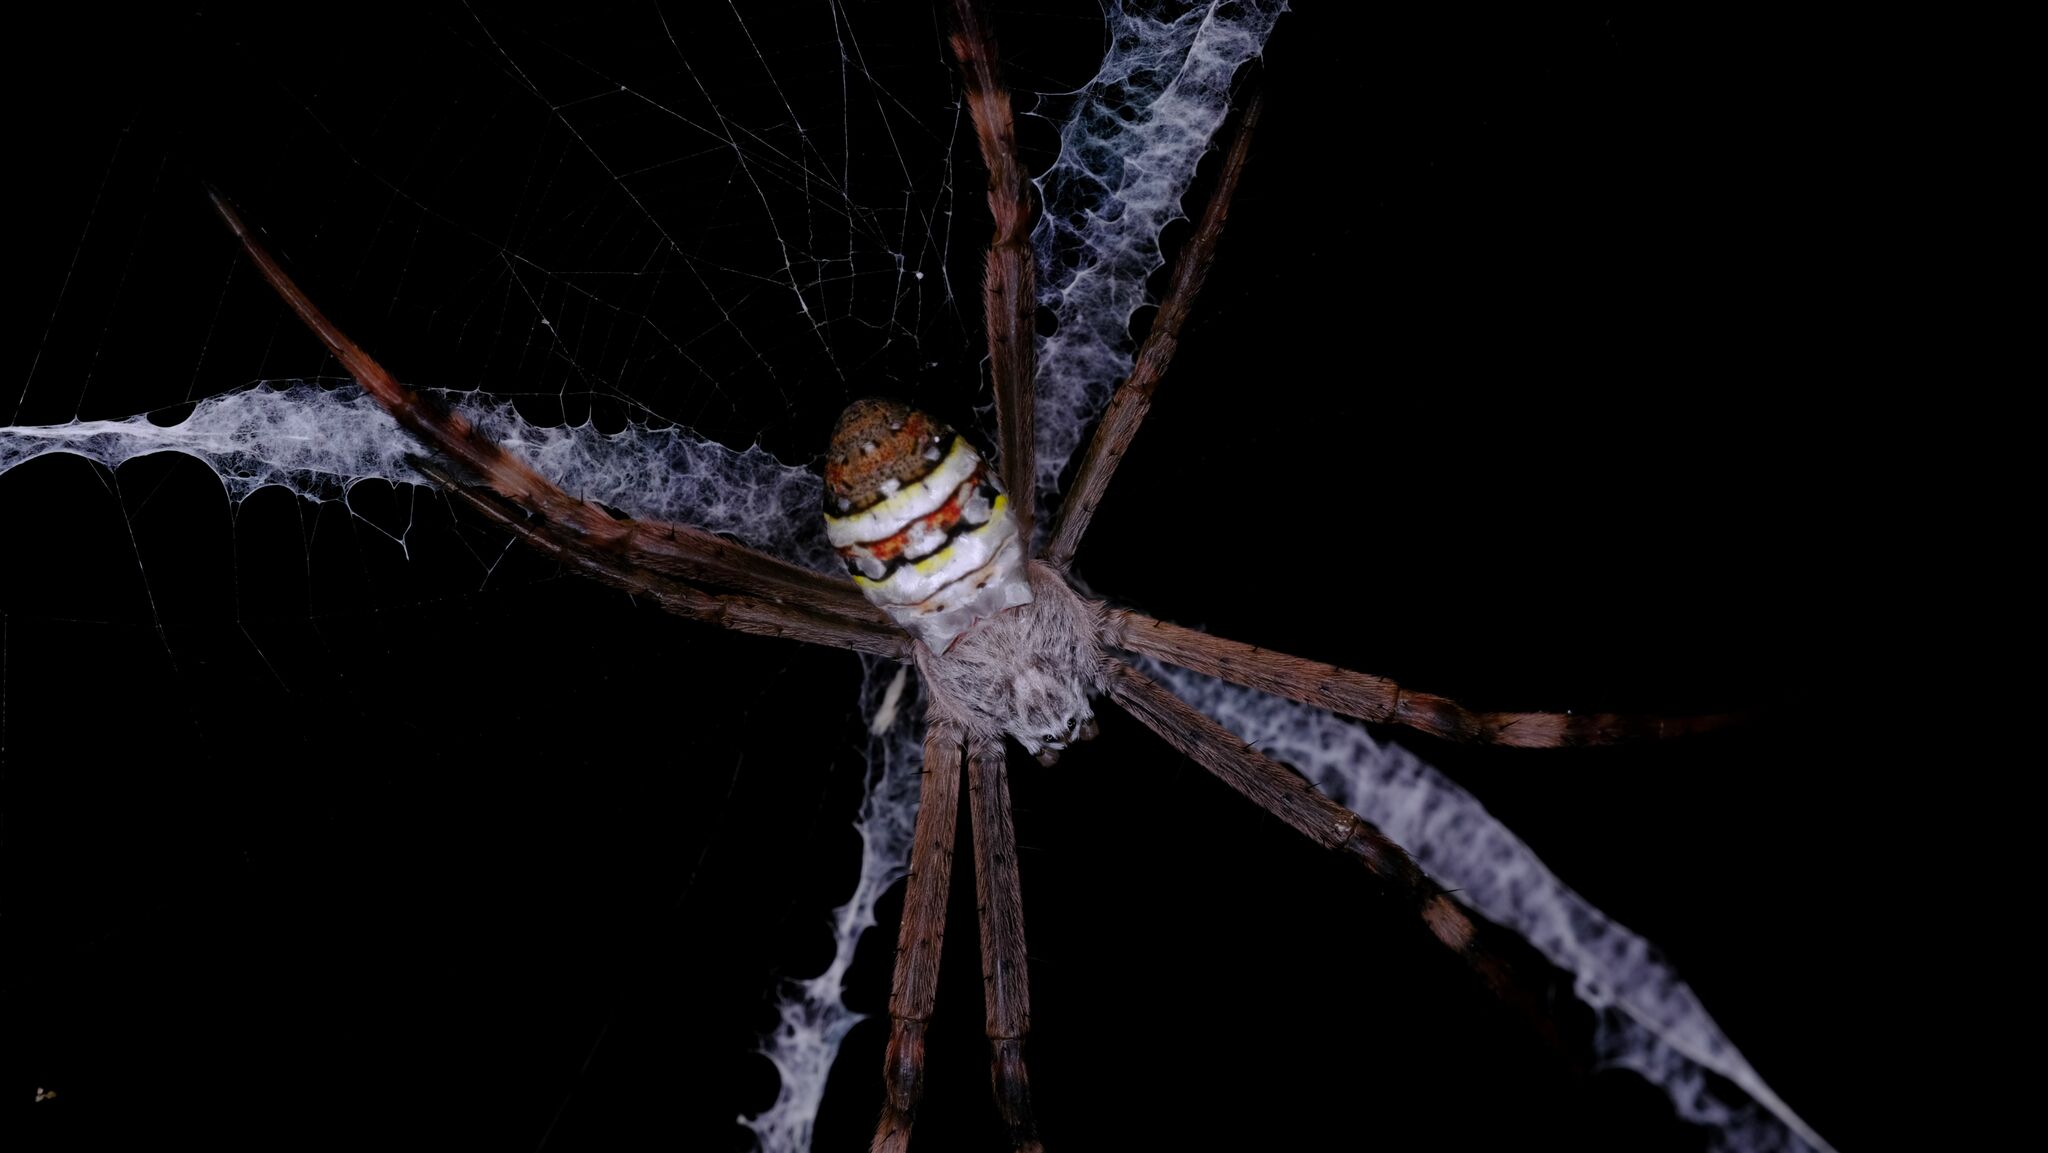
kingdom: Animalia
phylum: Arthropoda
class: Arachnida
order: Araneae
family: Araneidae
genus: Argiope
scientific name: Argiope keyserlingi
